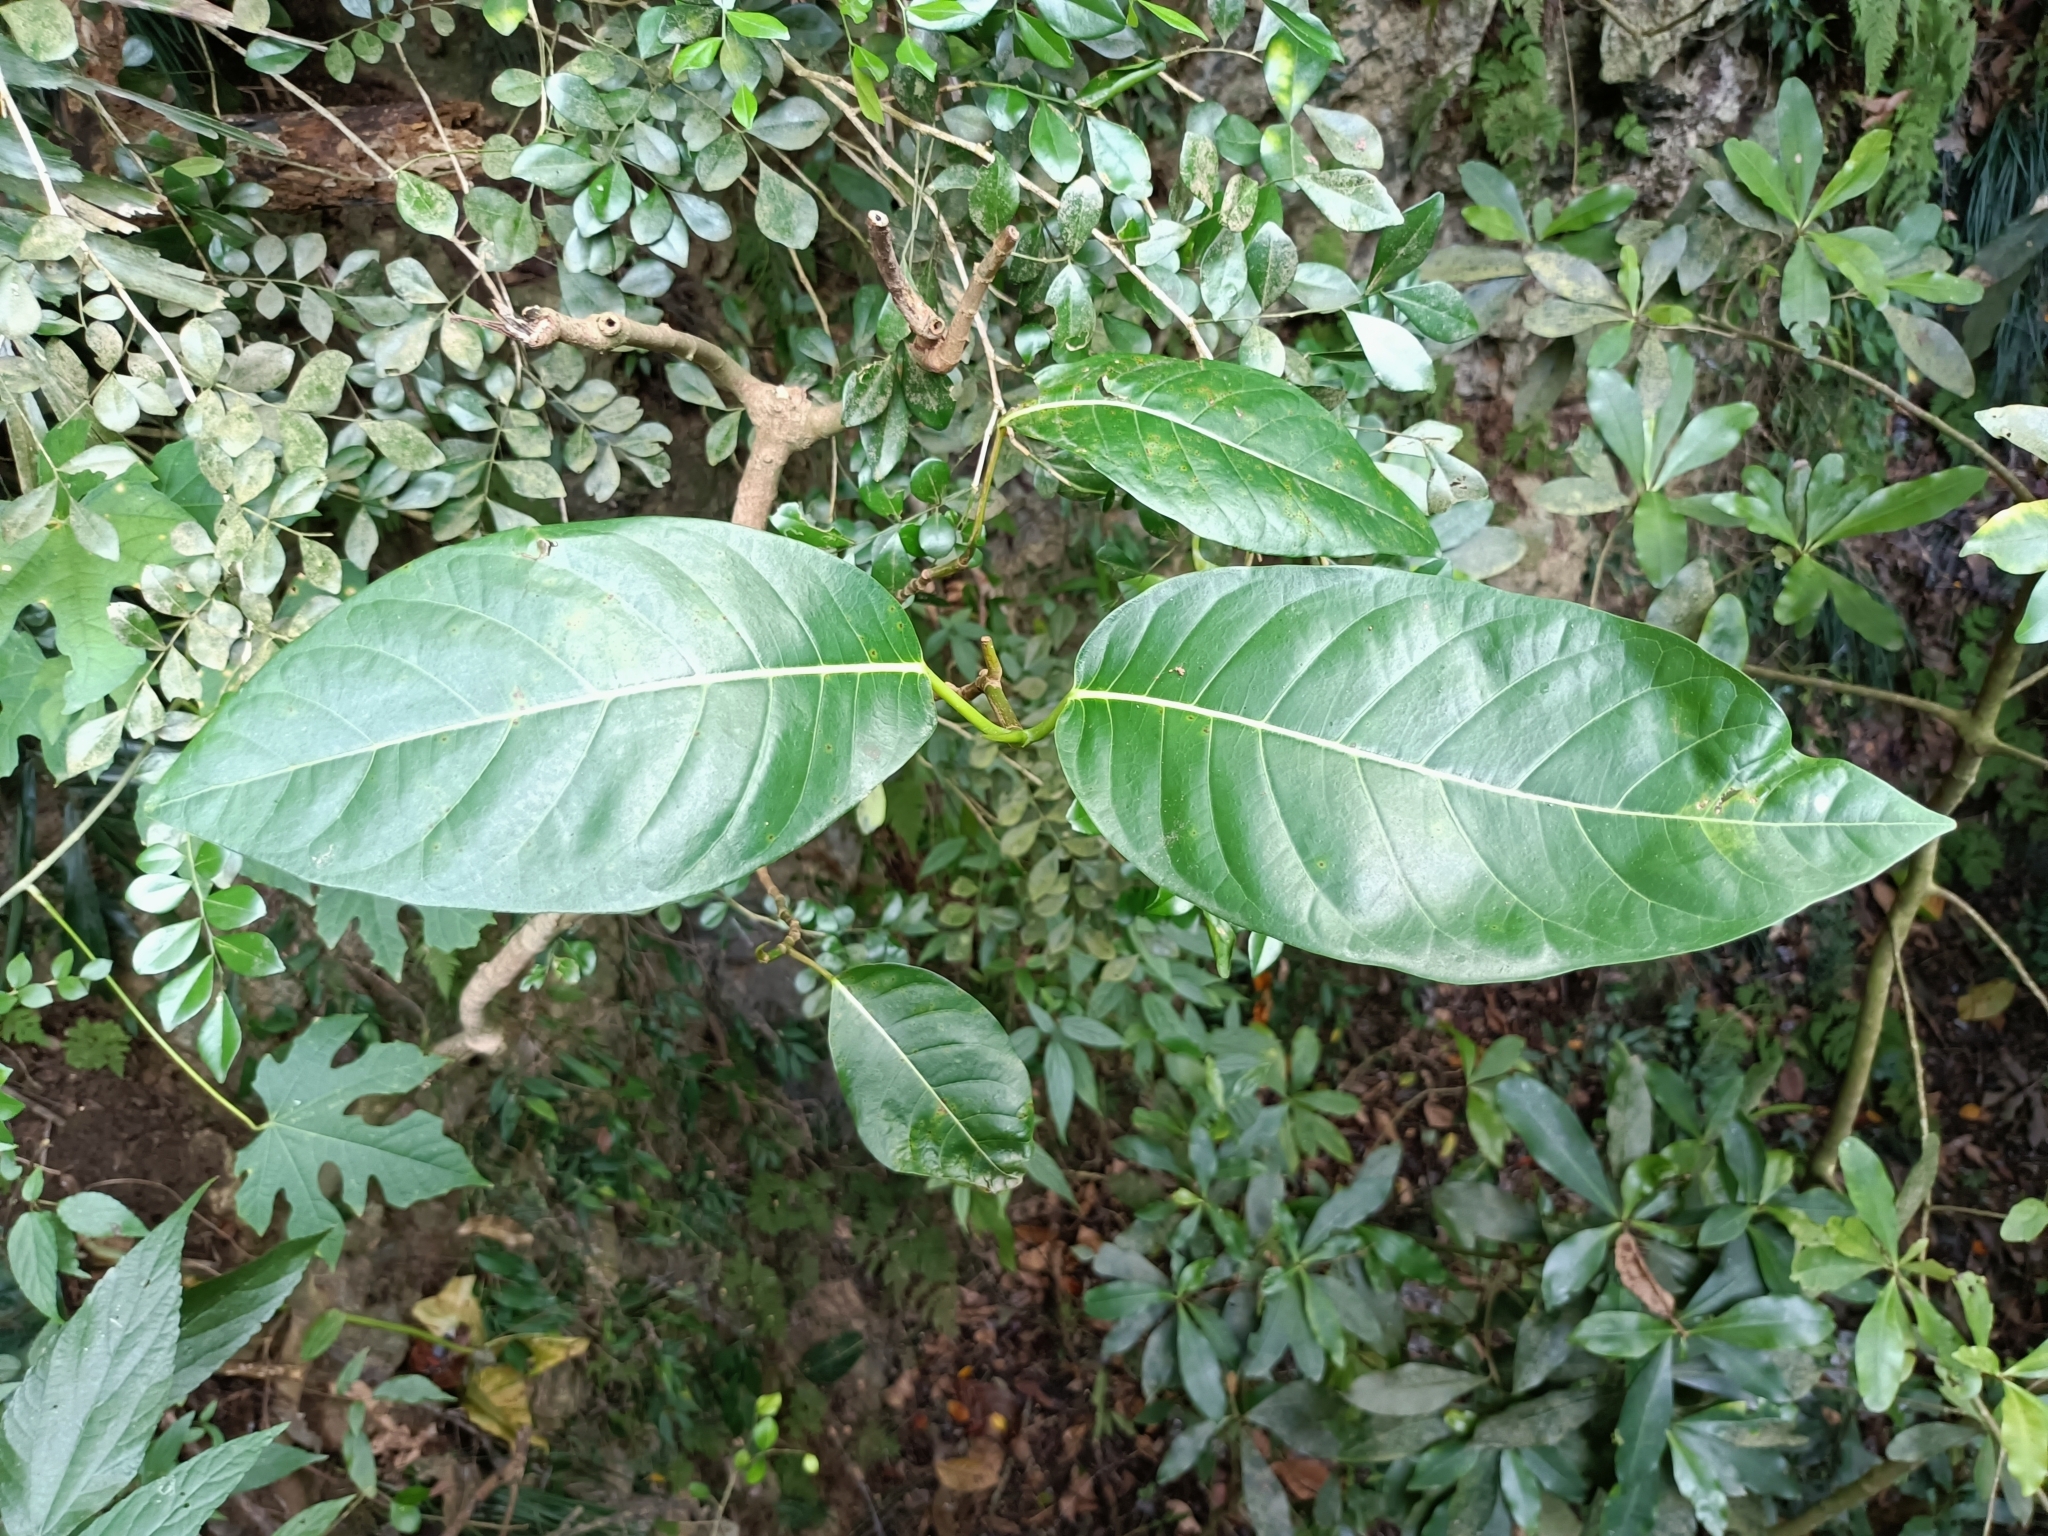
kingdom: Plantae
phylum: Tracheophyta
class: Magnoliopsida
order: Rosales
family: Moraceae
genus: Ficus
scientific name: Ficus septica
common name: Septic fig
